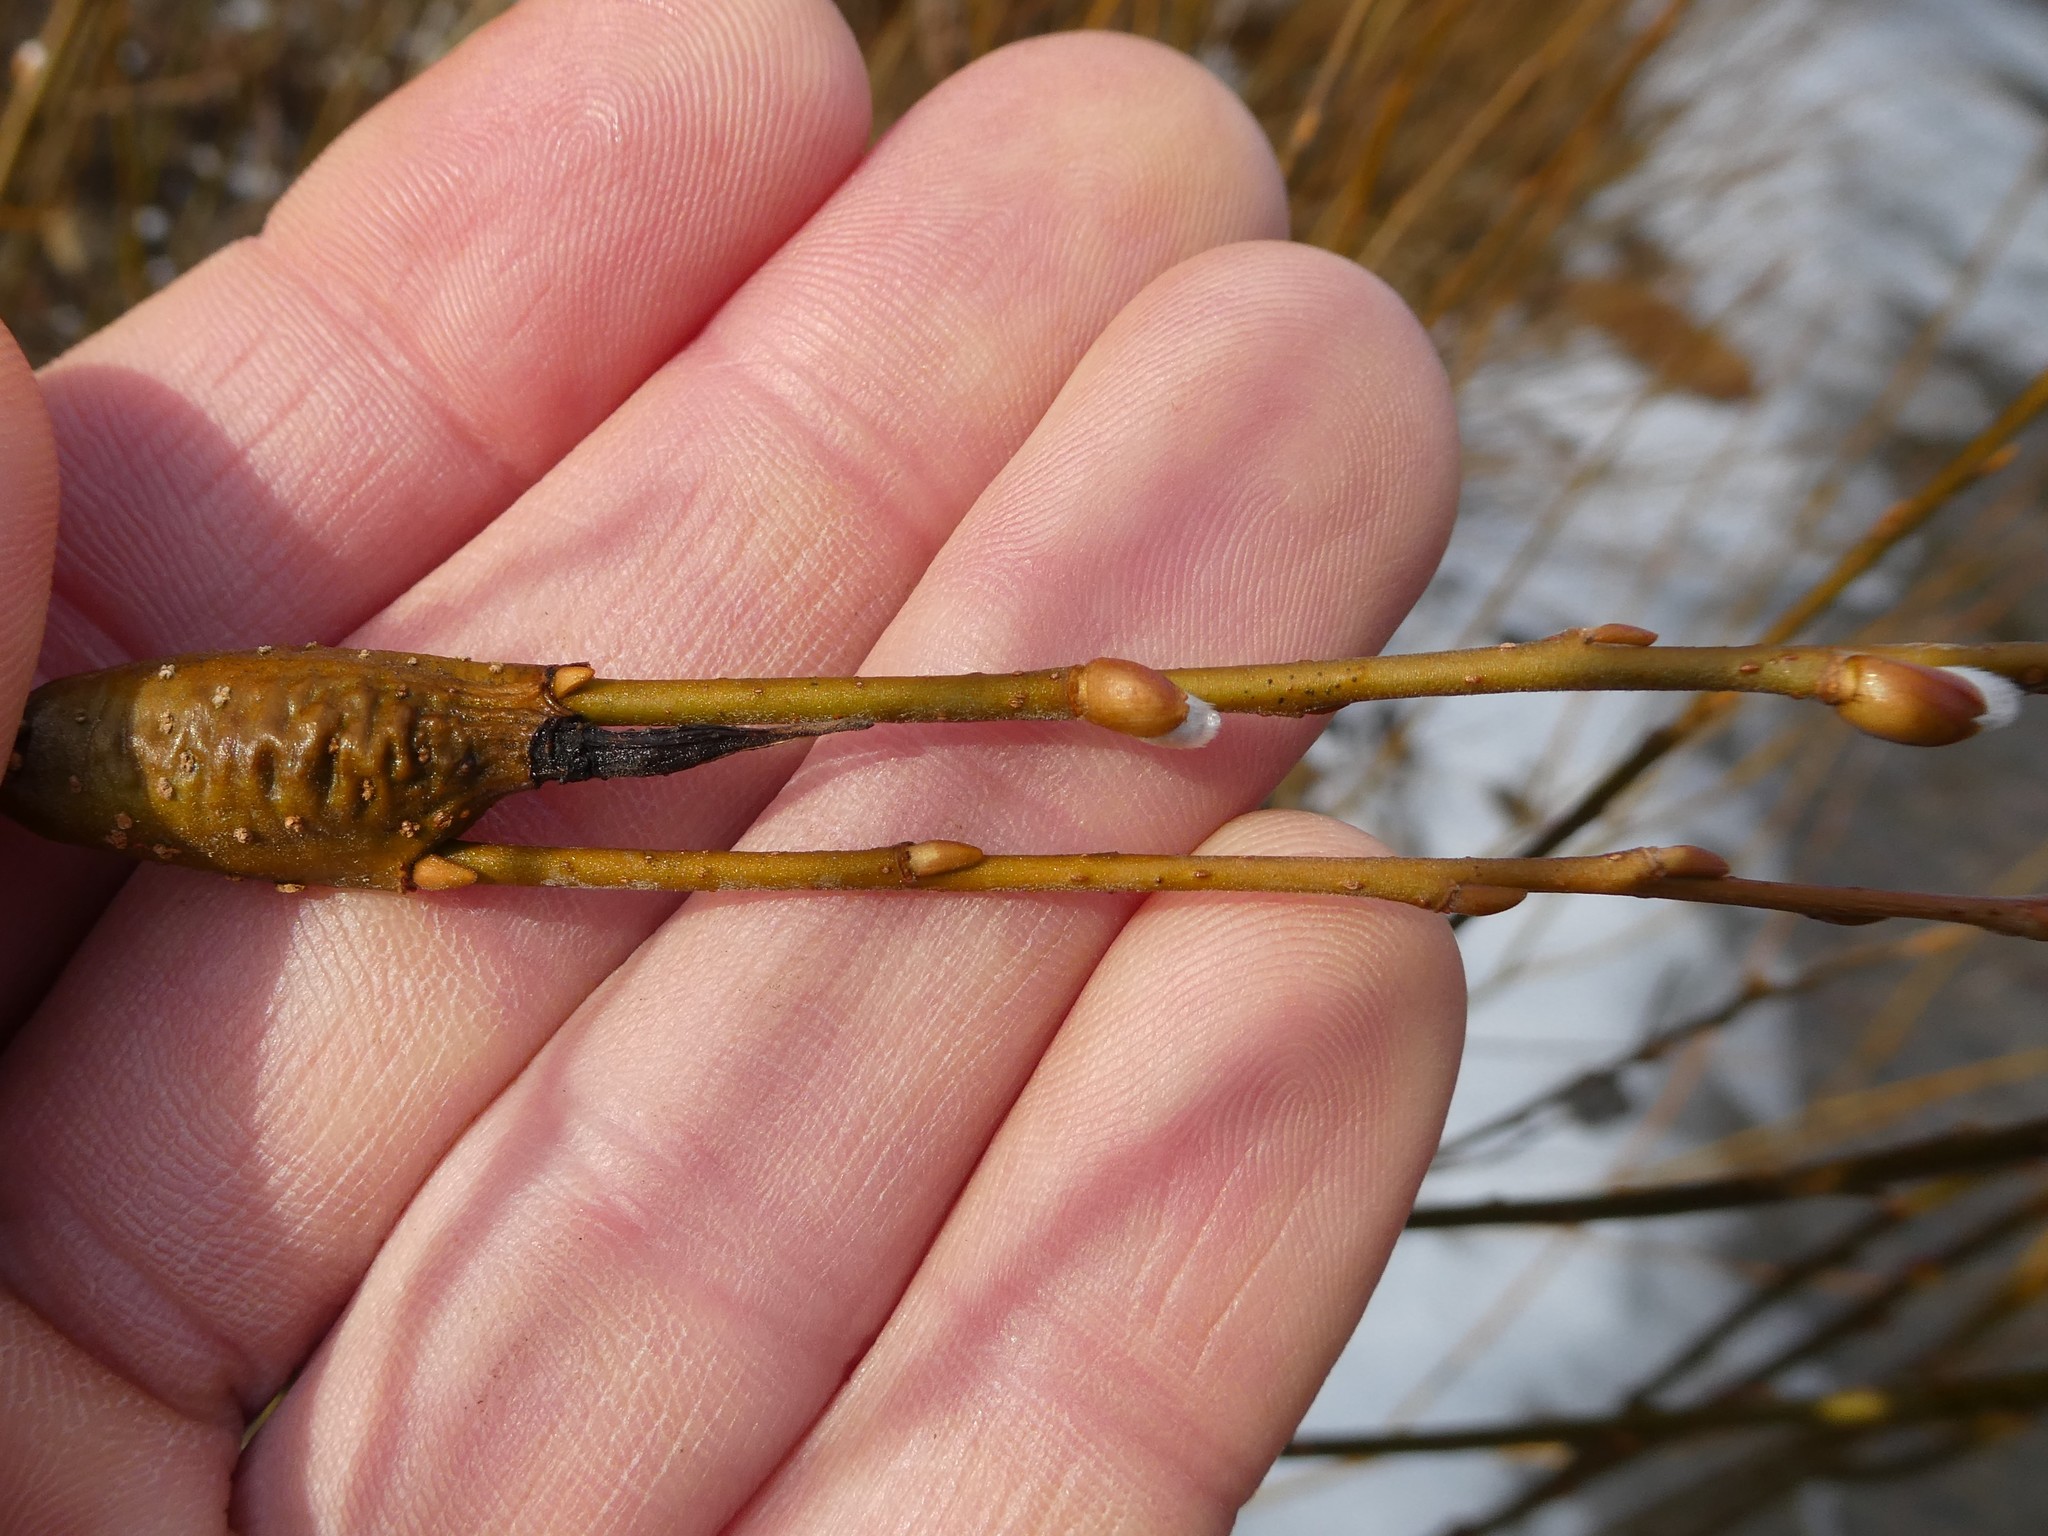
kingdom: Animalia
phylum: Arthropoda
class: Insecta
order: Diptera
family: Cecidomyiidae
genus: Thecodiplosis
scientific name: Thecodiplosis pinirigidae
